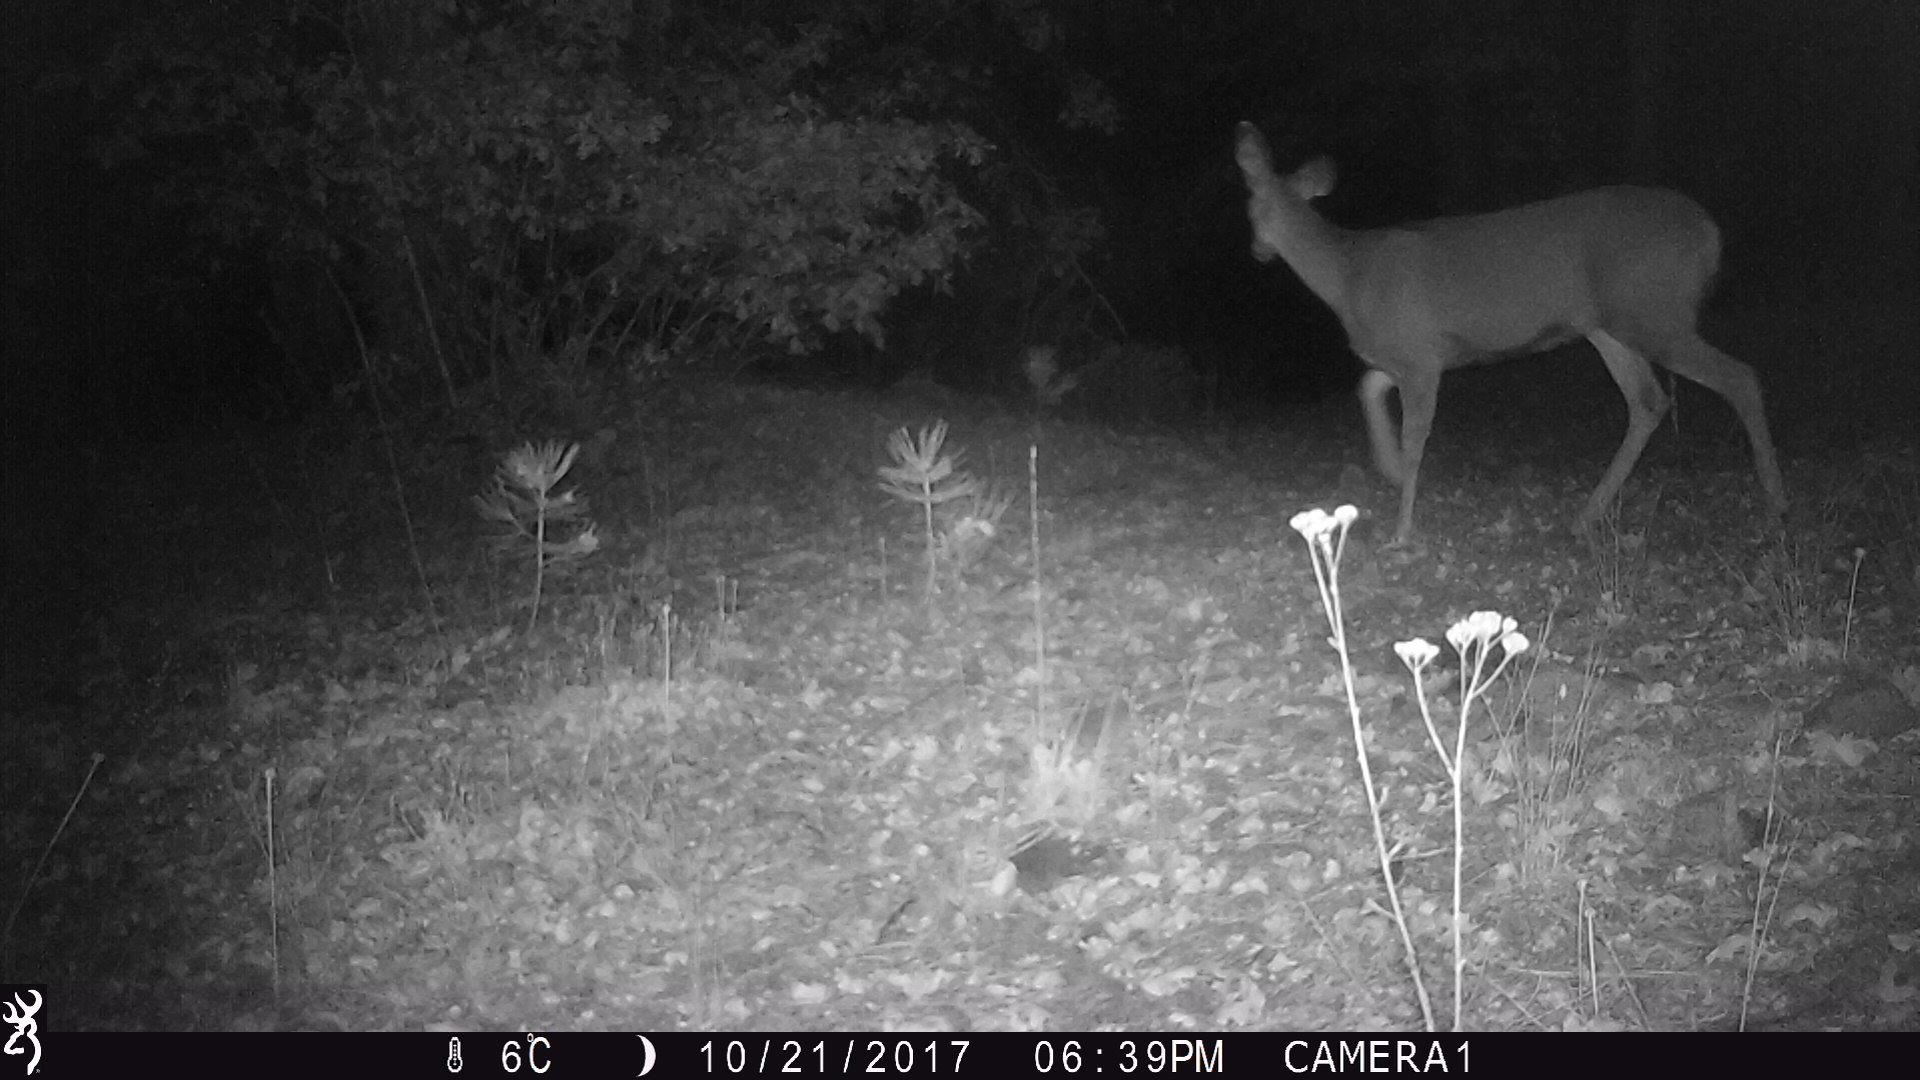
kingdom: Animalia
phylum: Chordata
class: Mammalia
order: Artiodactyla
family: Cervidae
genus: Odocoileus
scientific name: Odocoileus hemionus
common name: Mule deer
